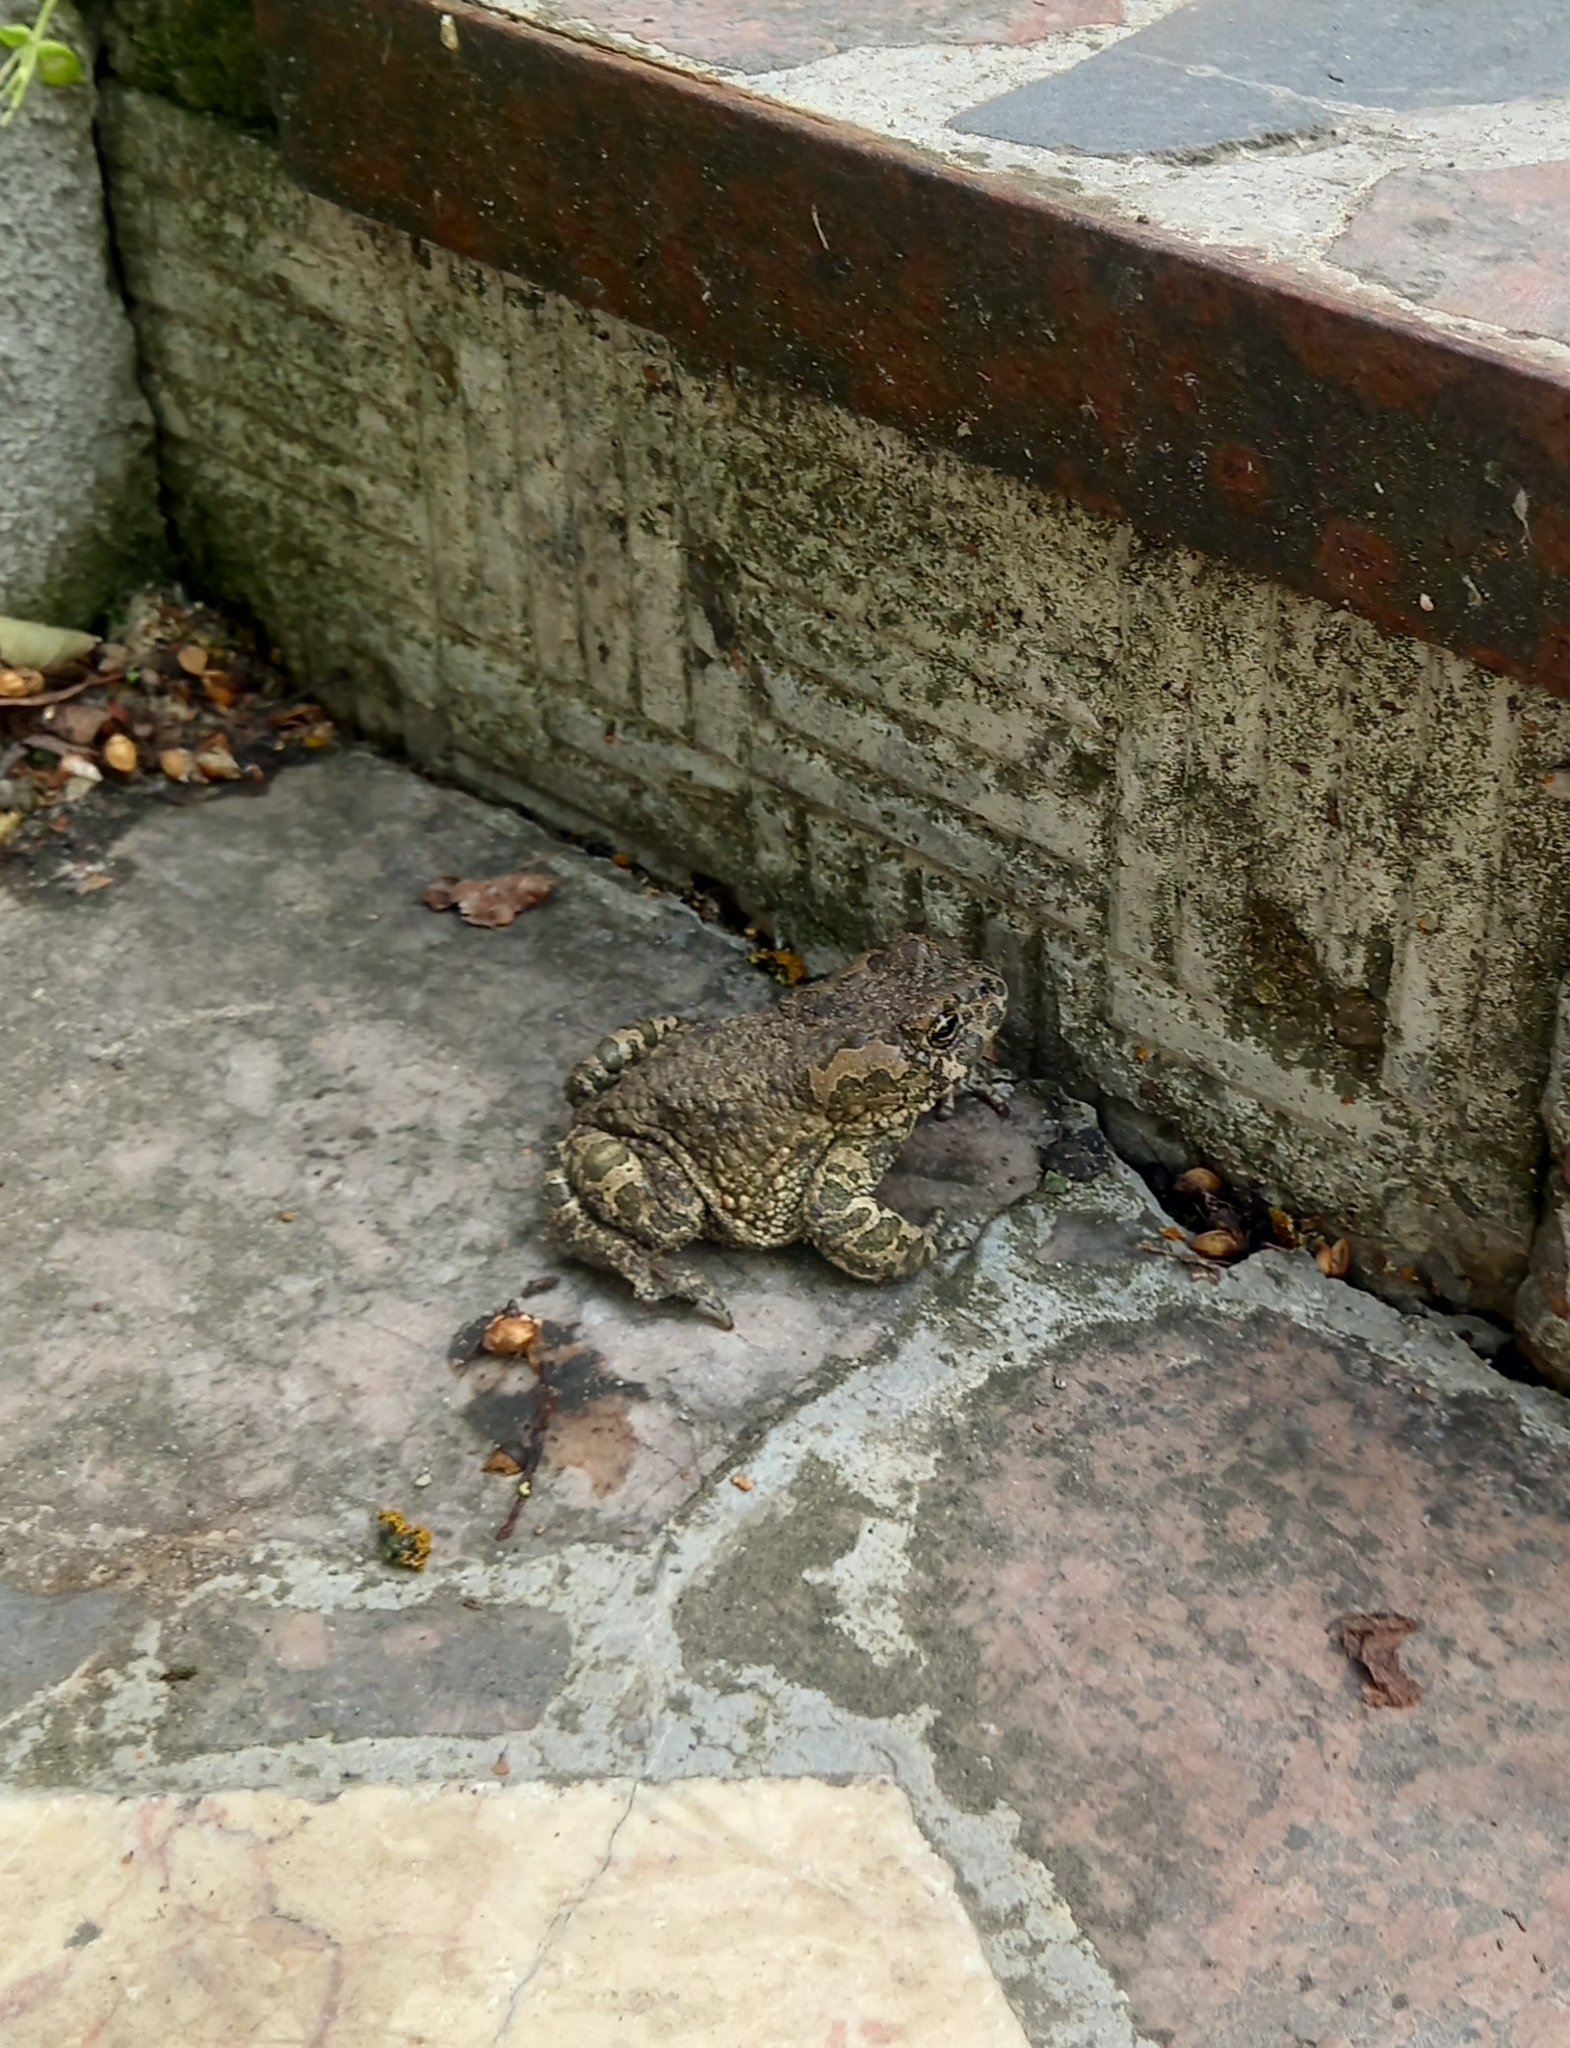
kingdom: Animalia
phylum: Chordata
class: Amphibia
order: Anura
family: Bufonidae
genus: Bufotes
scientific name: Bufotes viridis
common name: European green toad
